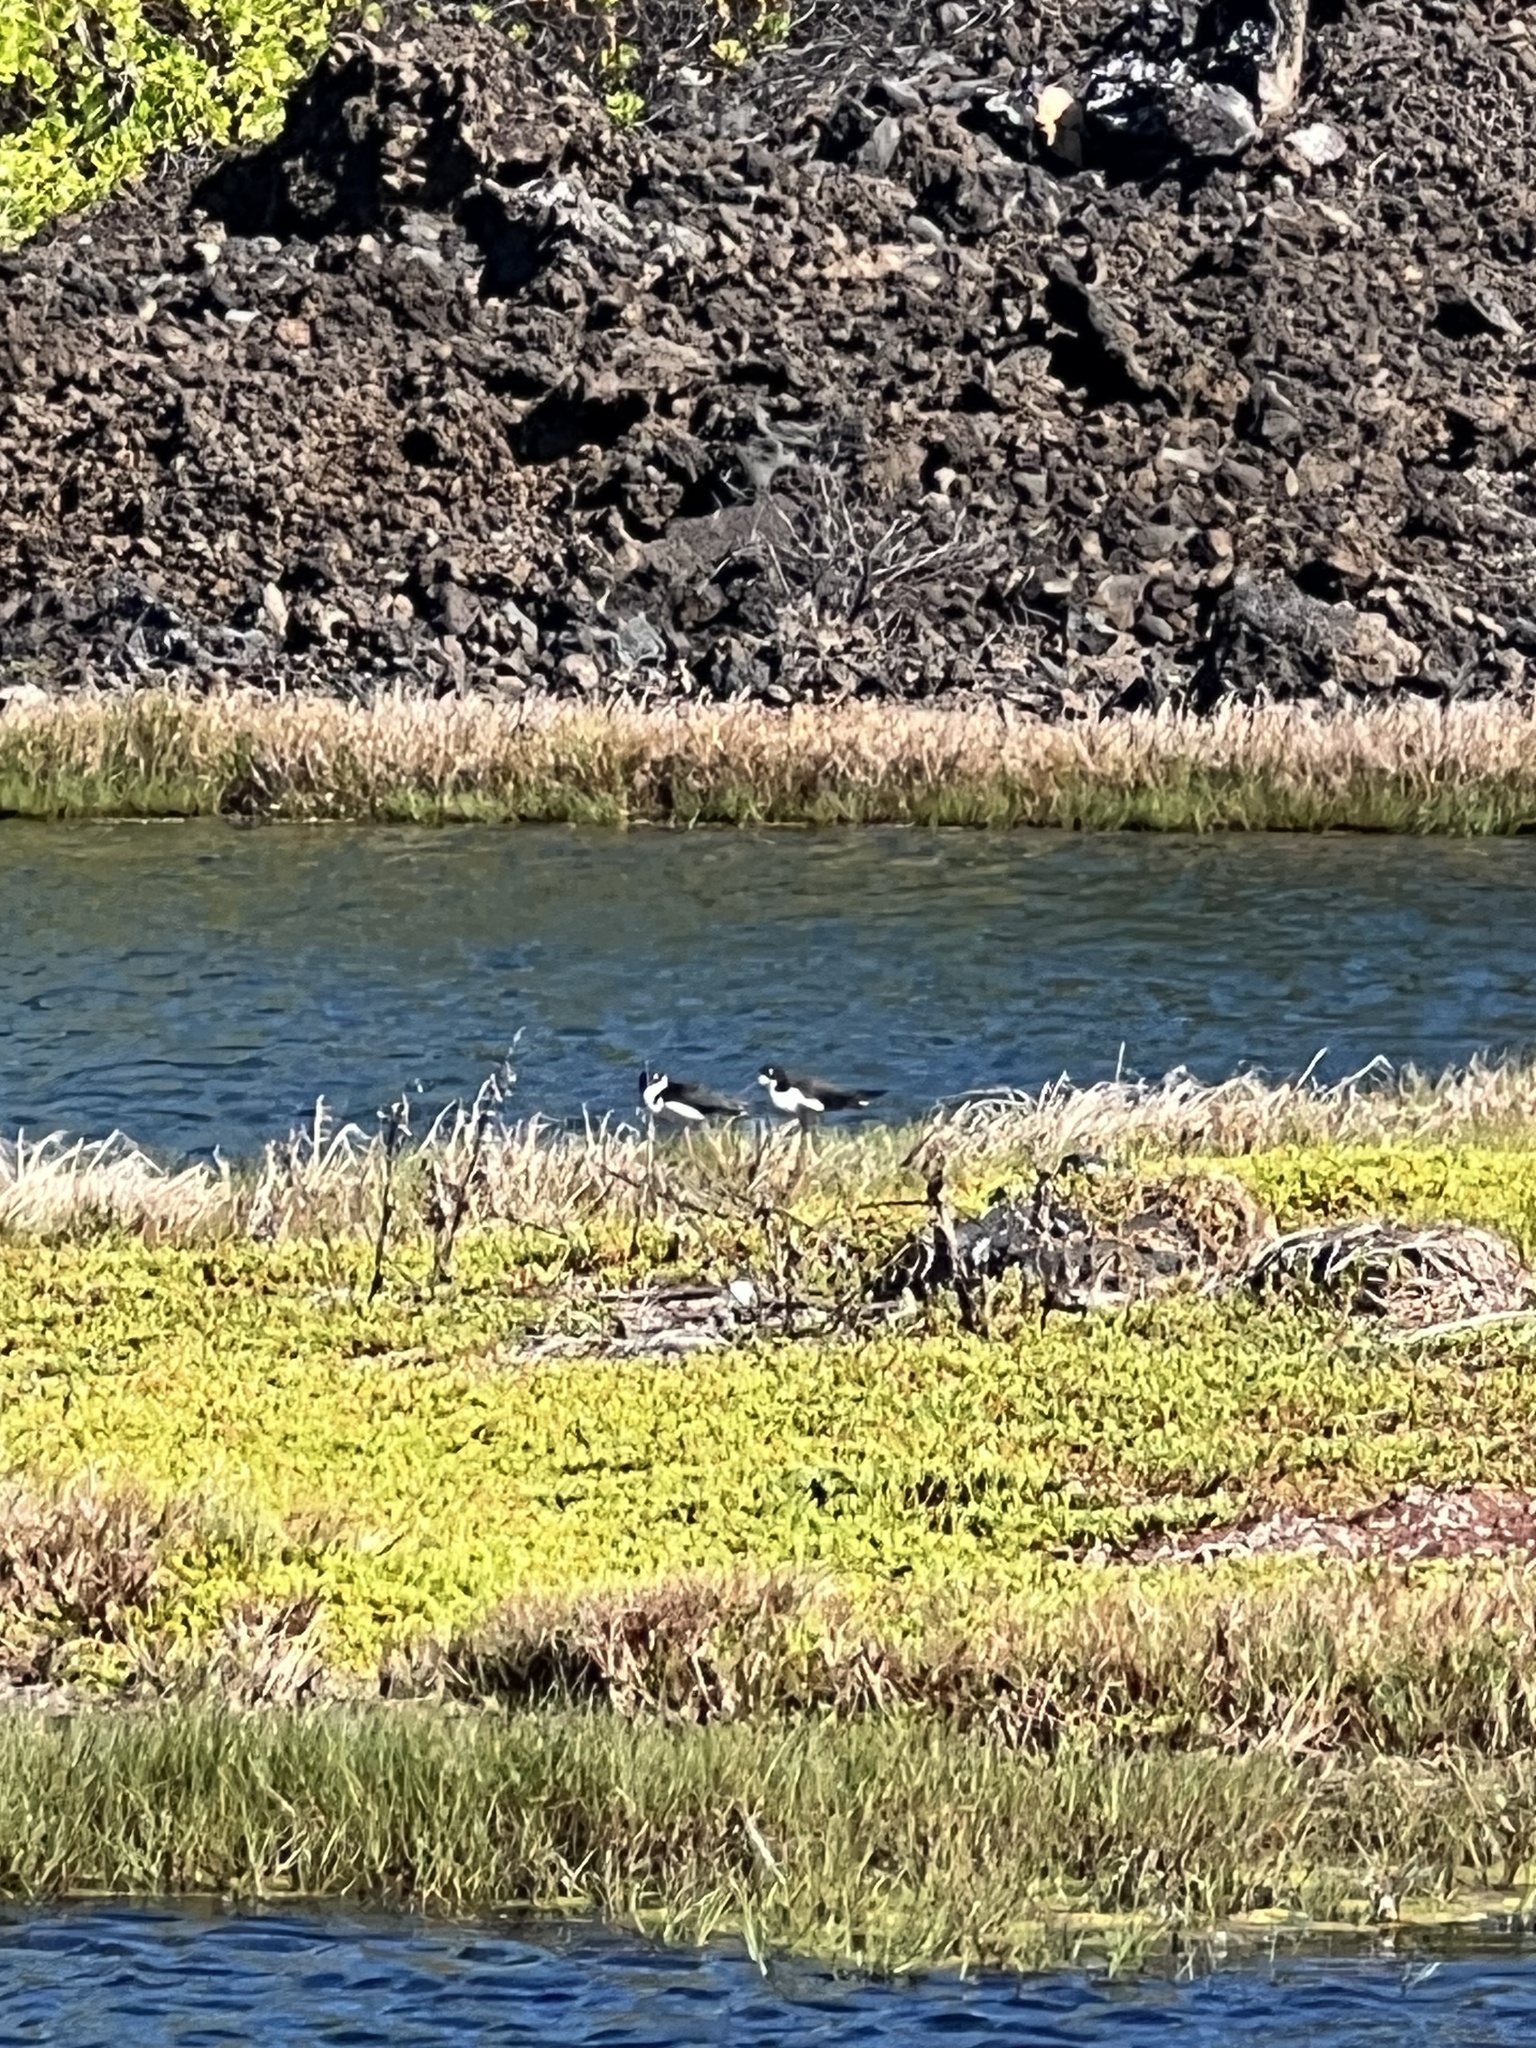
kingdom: Animalia
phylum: Chordata
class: Aves
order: Charadriiformes
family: Recurvirostridae
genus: Himantopus
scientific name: Himantopus mexicanus
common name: Black-necked stilt
